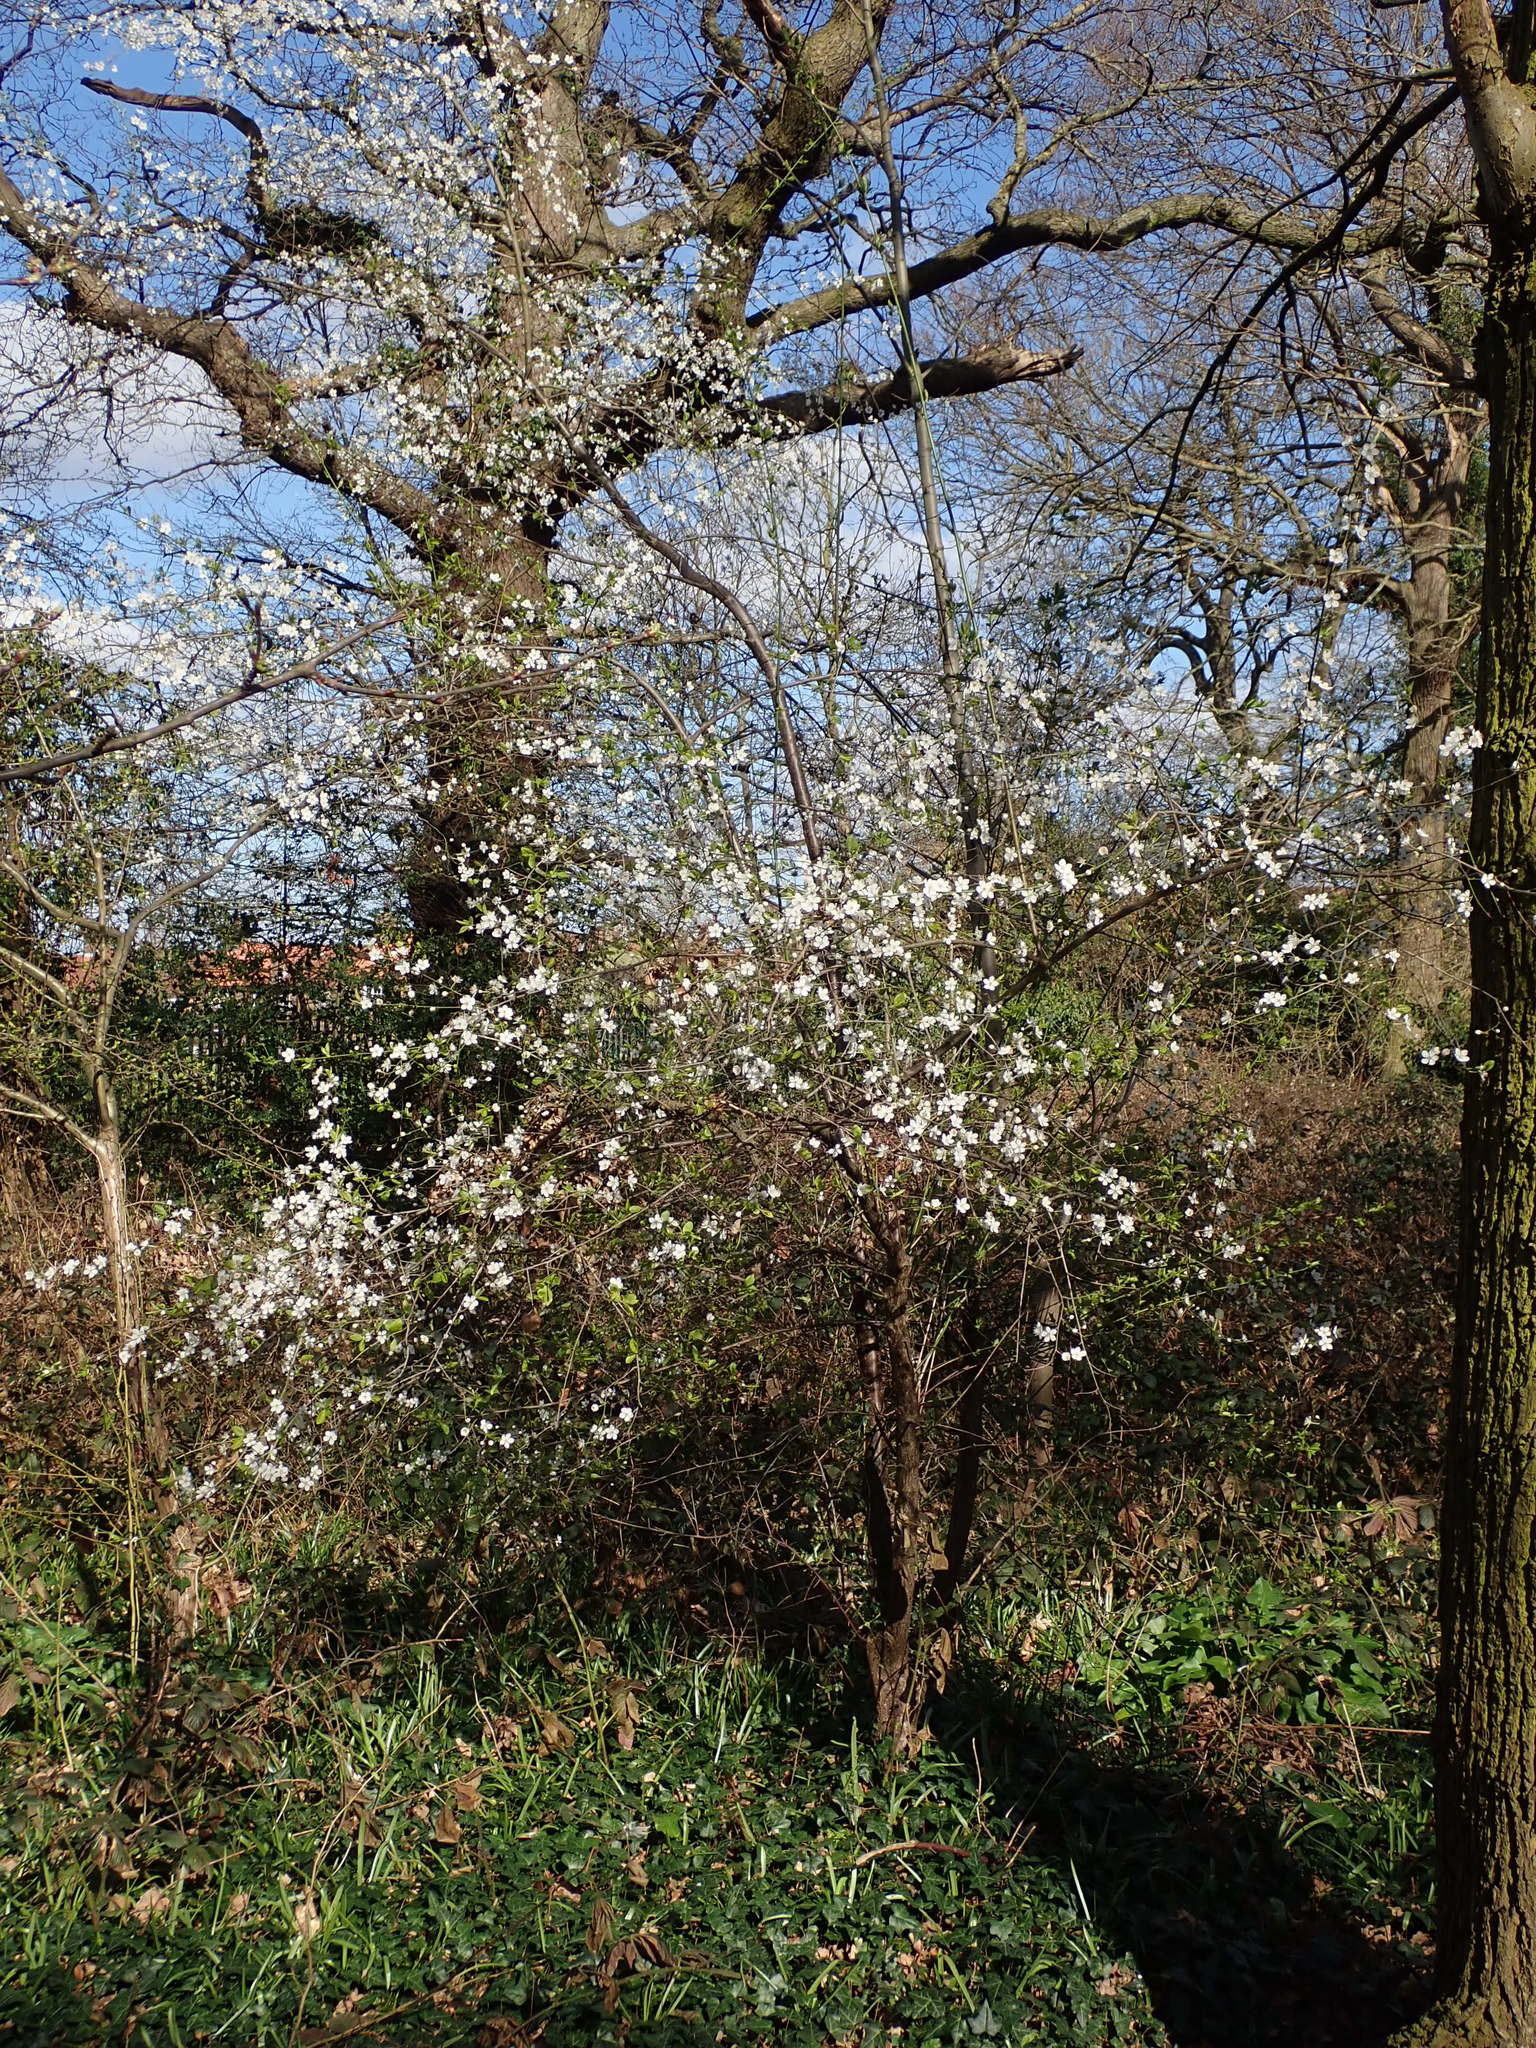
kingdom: Plantae
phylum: Tracheophyta
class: Magnoliopsida
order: Rosales
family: Rosaceae
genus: Prunus
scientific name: Prunus cerasifera
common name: Cherry plum
